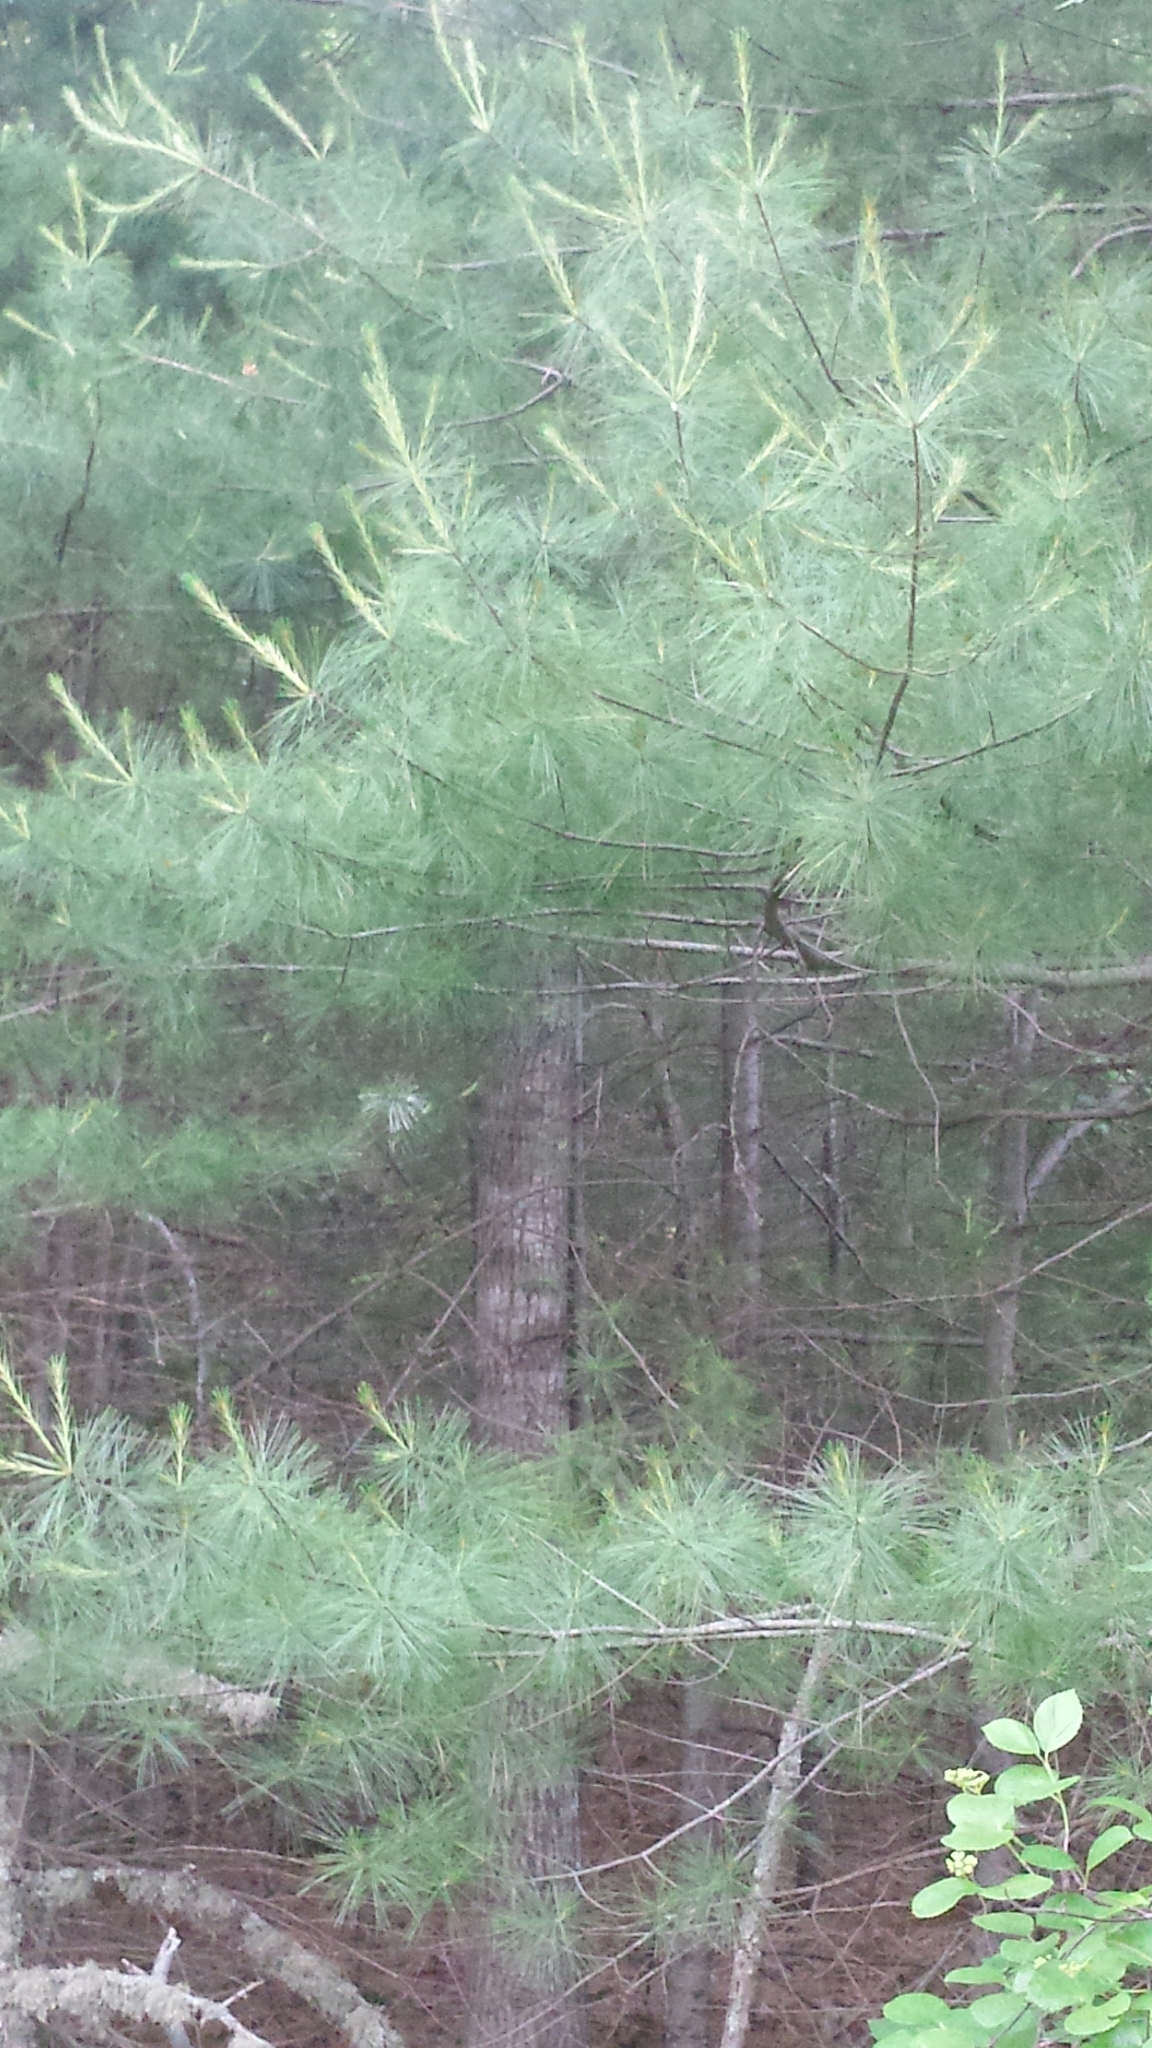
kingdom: Plantae
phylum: Tracheophyta
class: Pinopsida
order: Pinales
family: Pinaceae
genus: Pinus
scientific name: Pinus strobus
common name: Weymouth pine
